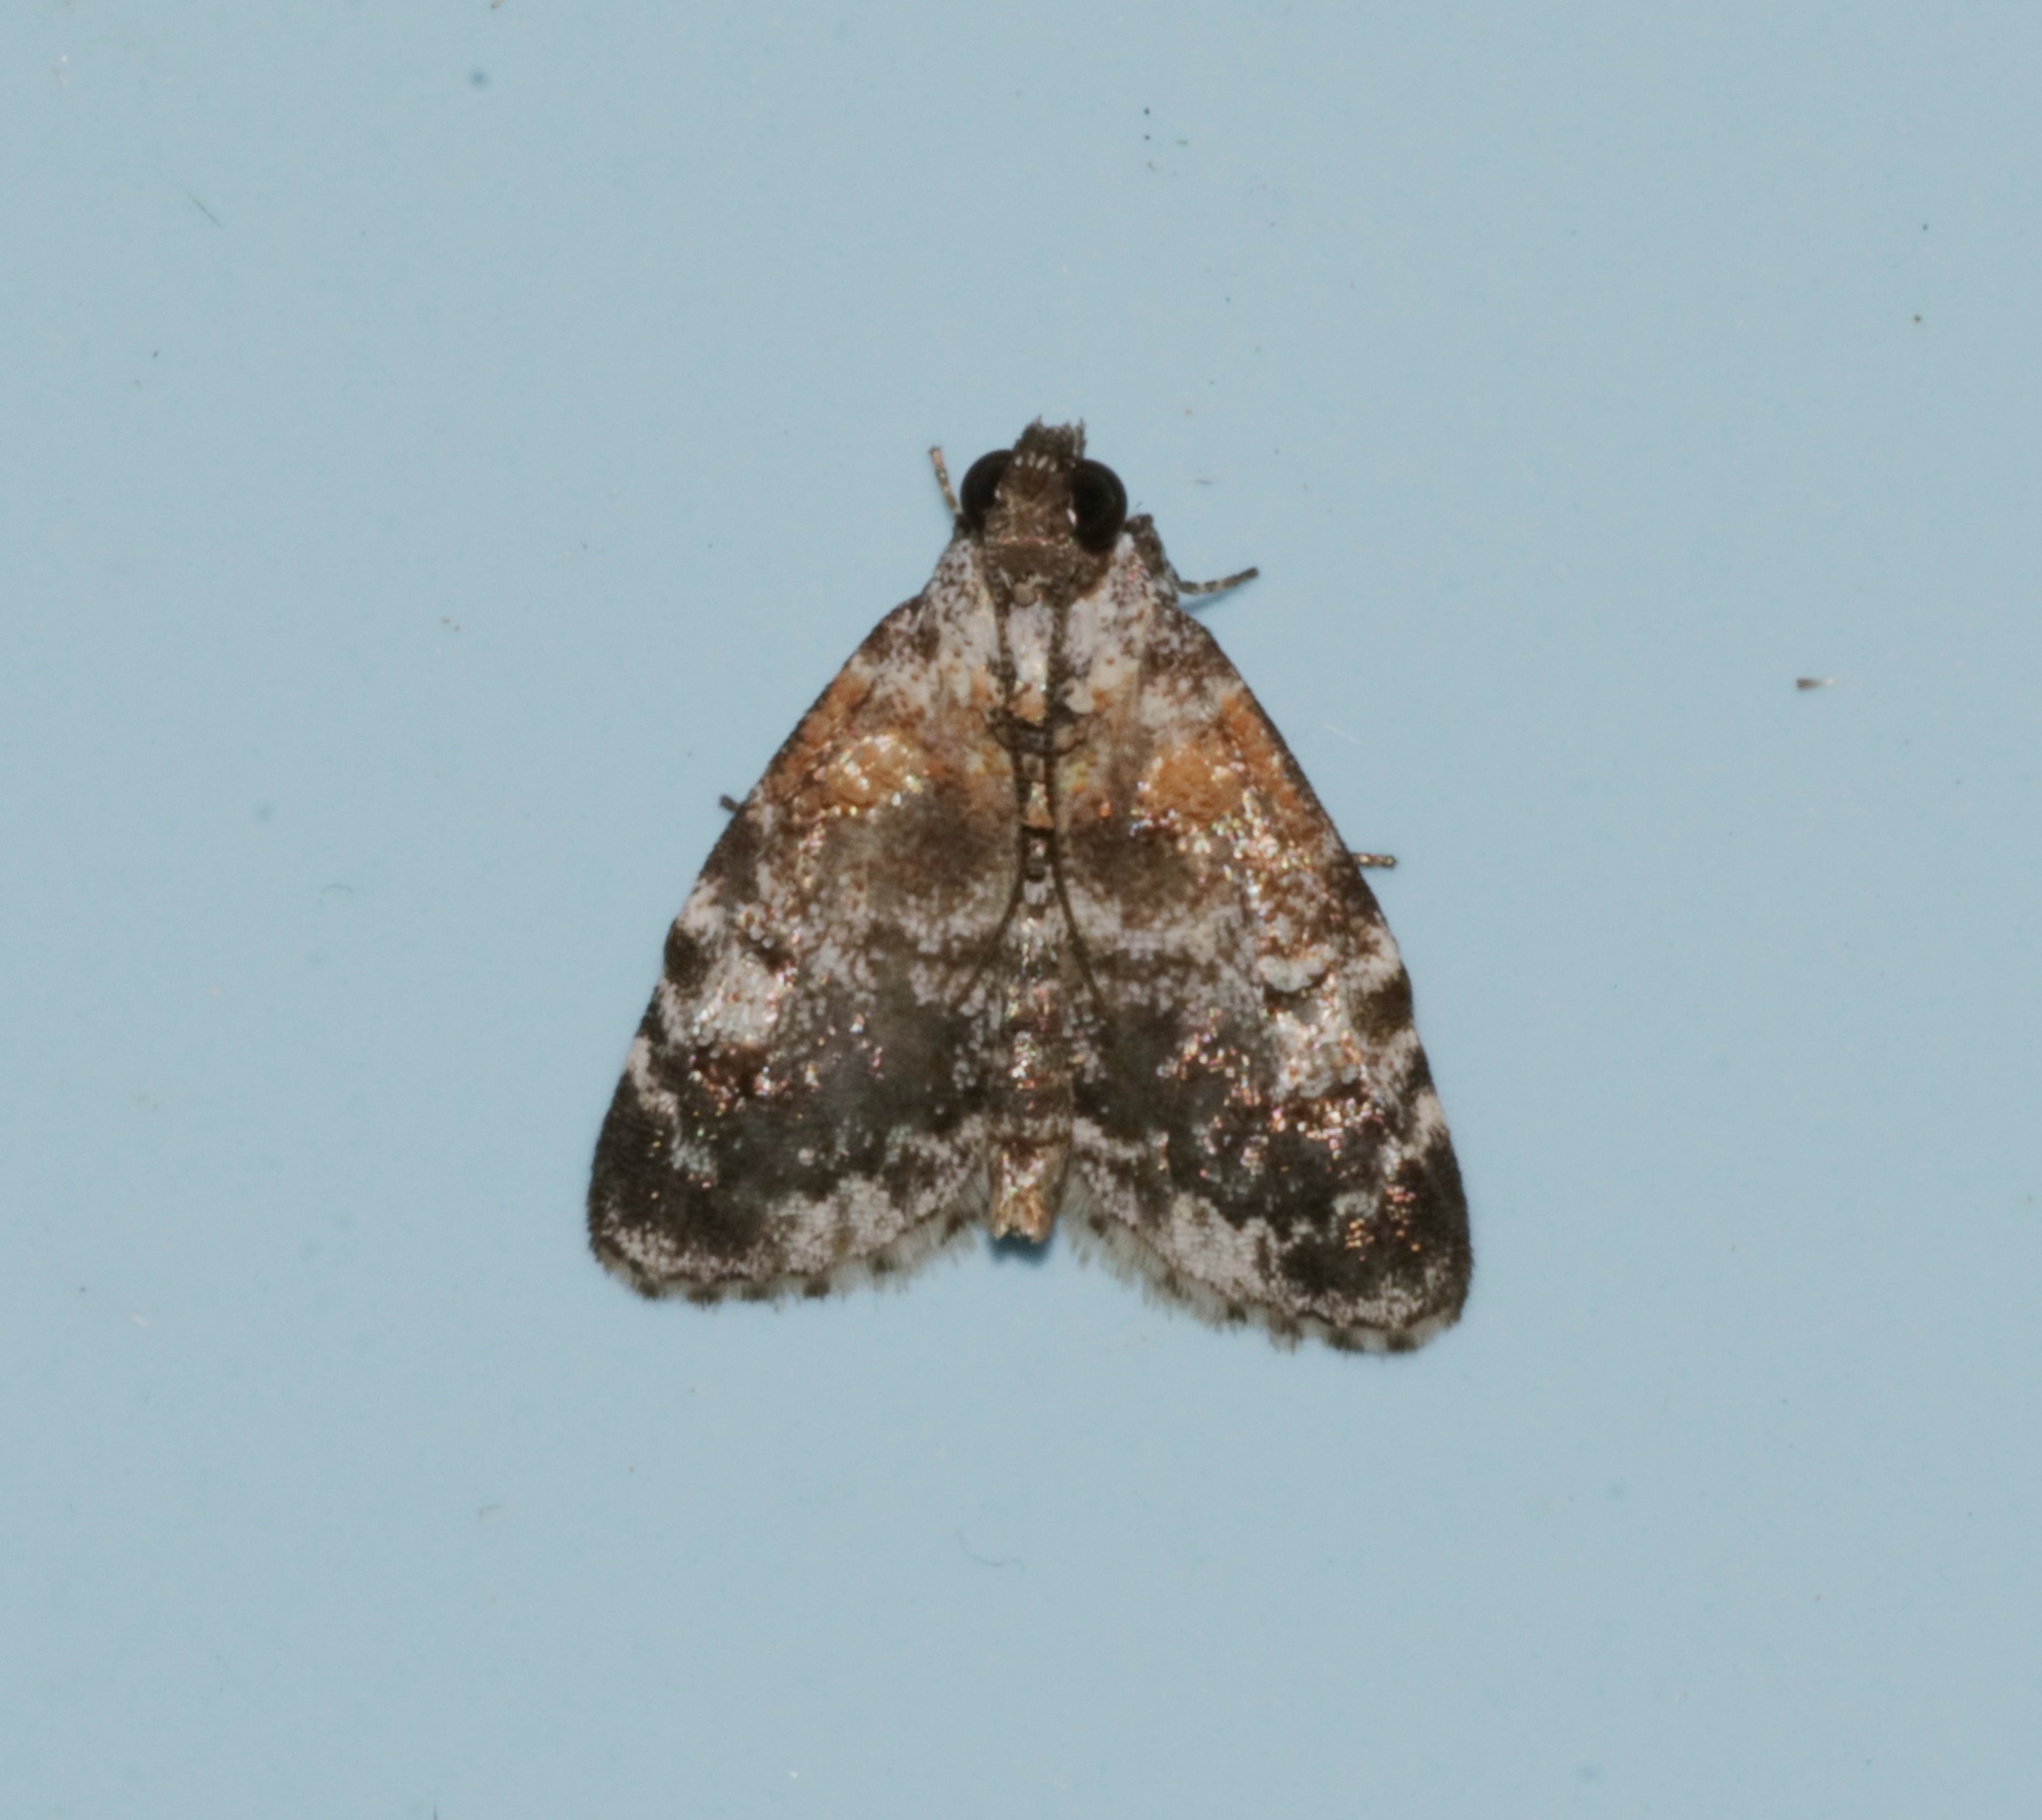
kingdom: Animalia
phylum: Arthropoda
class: Insecta
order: Lepidoptera
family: Pyralidae
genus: Salma
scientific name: Salma
